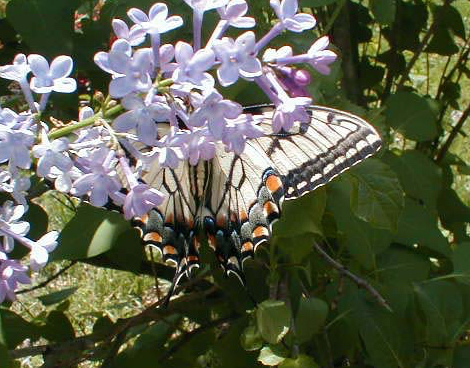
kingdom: Animalia
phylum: Arthropoda
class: Insecta
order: Lepidoptera
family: Papilionidae
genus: Papilio
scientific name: Papilio glaucus
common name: Tiger swallowtail
